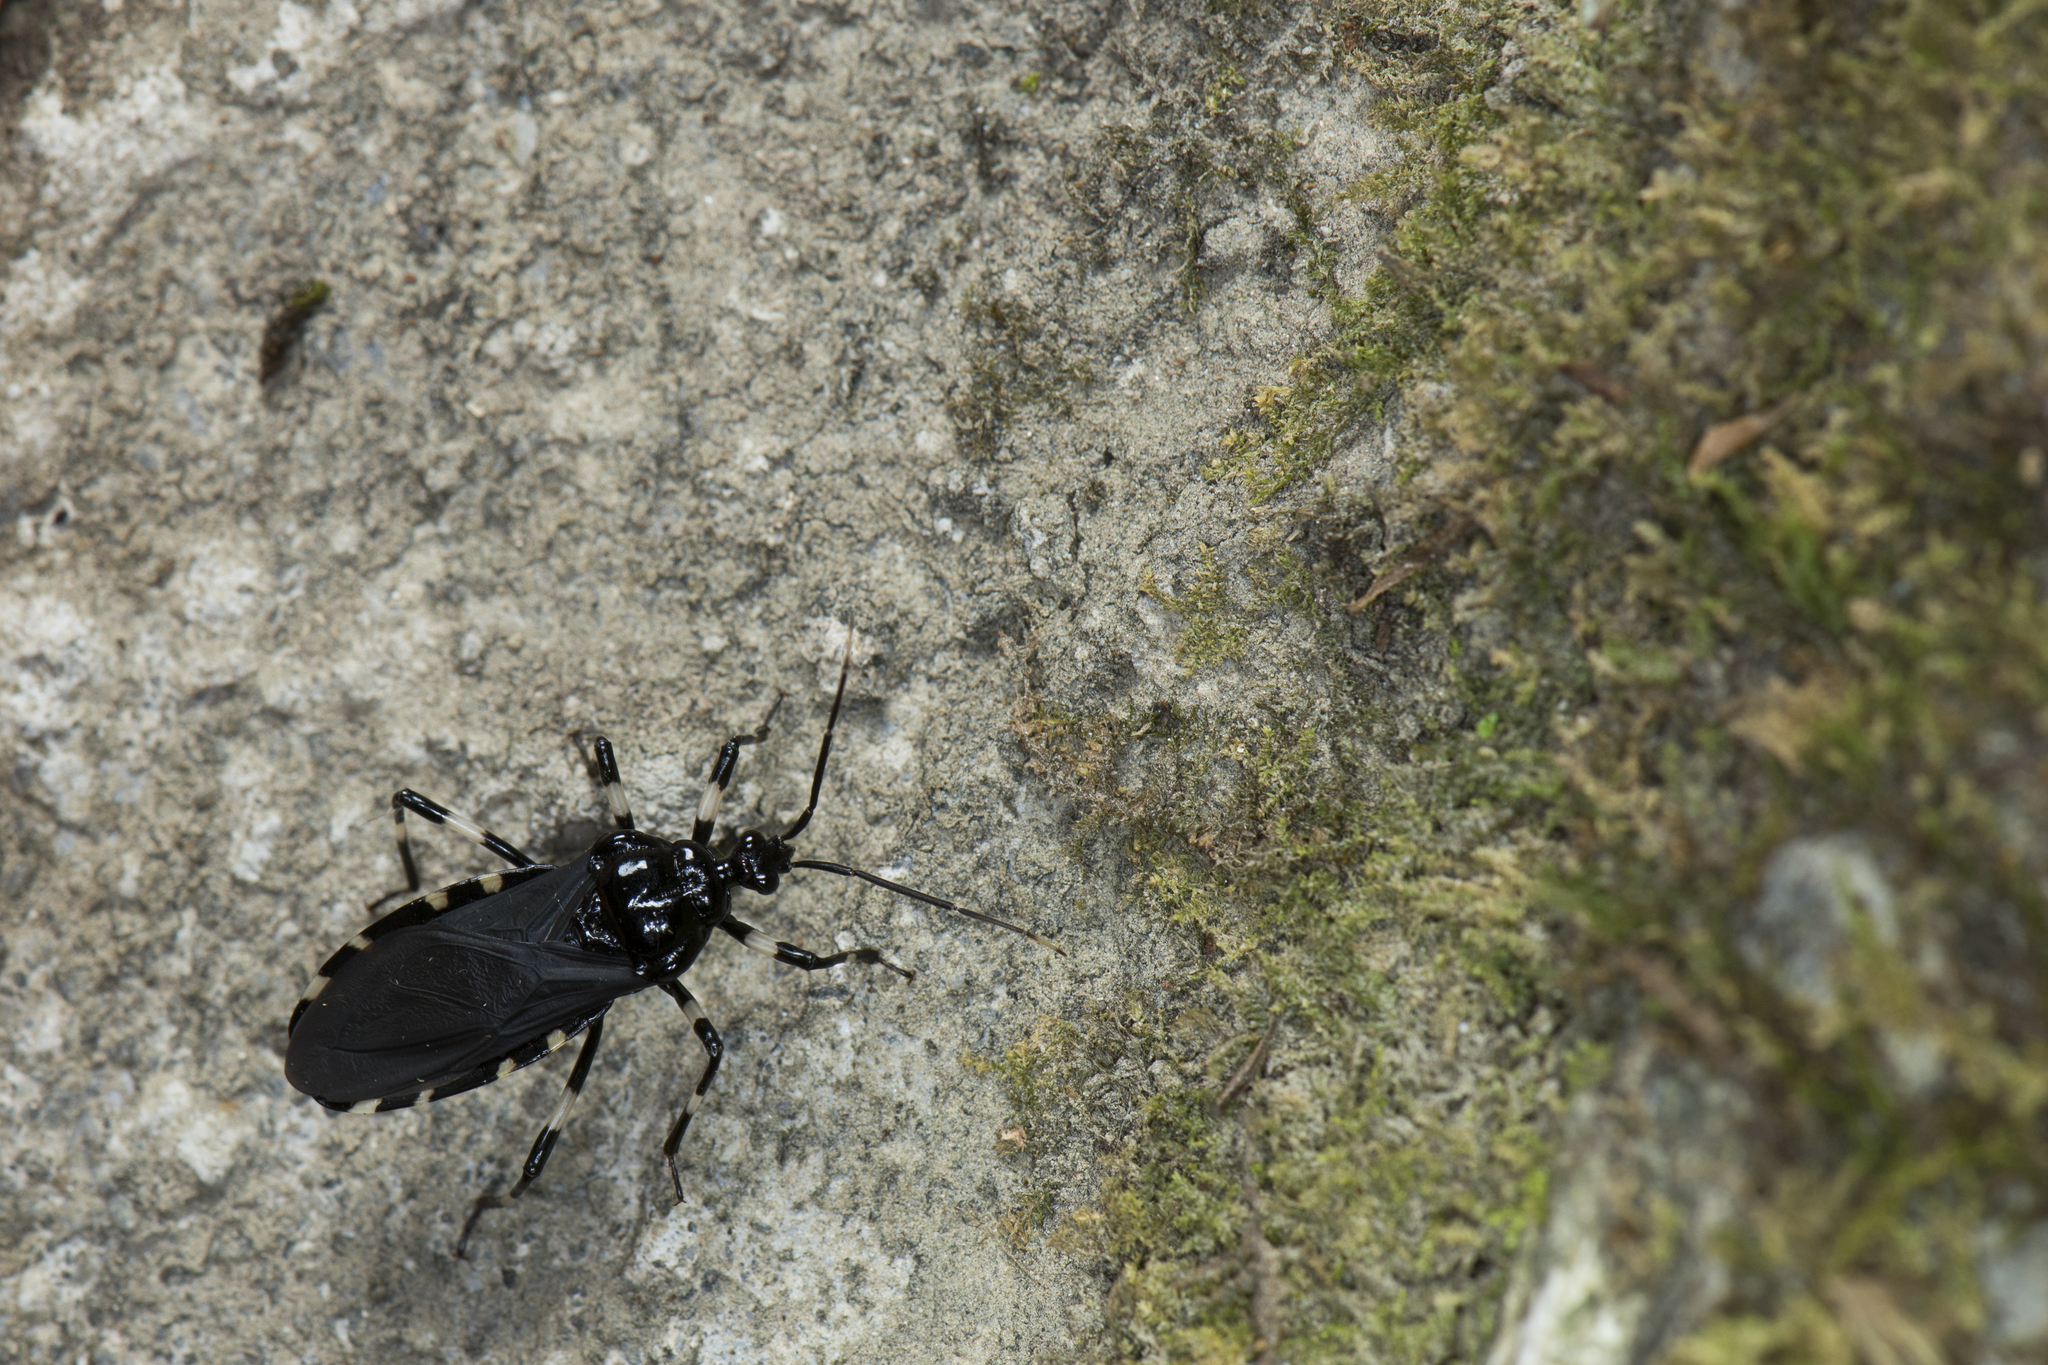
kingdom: Animalia
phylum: Arthropoda
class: Insecta
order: Hemiptera
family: Reduviidae
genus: Neozirta
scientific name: Neozirta eidmanni
